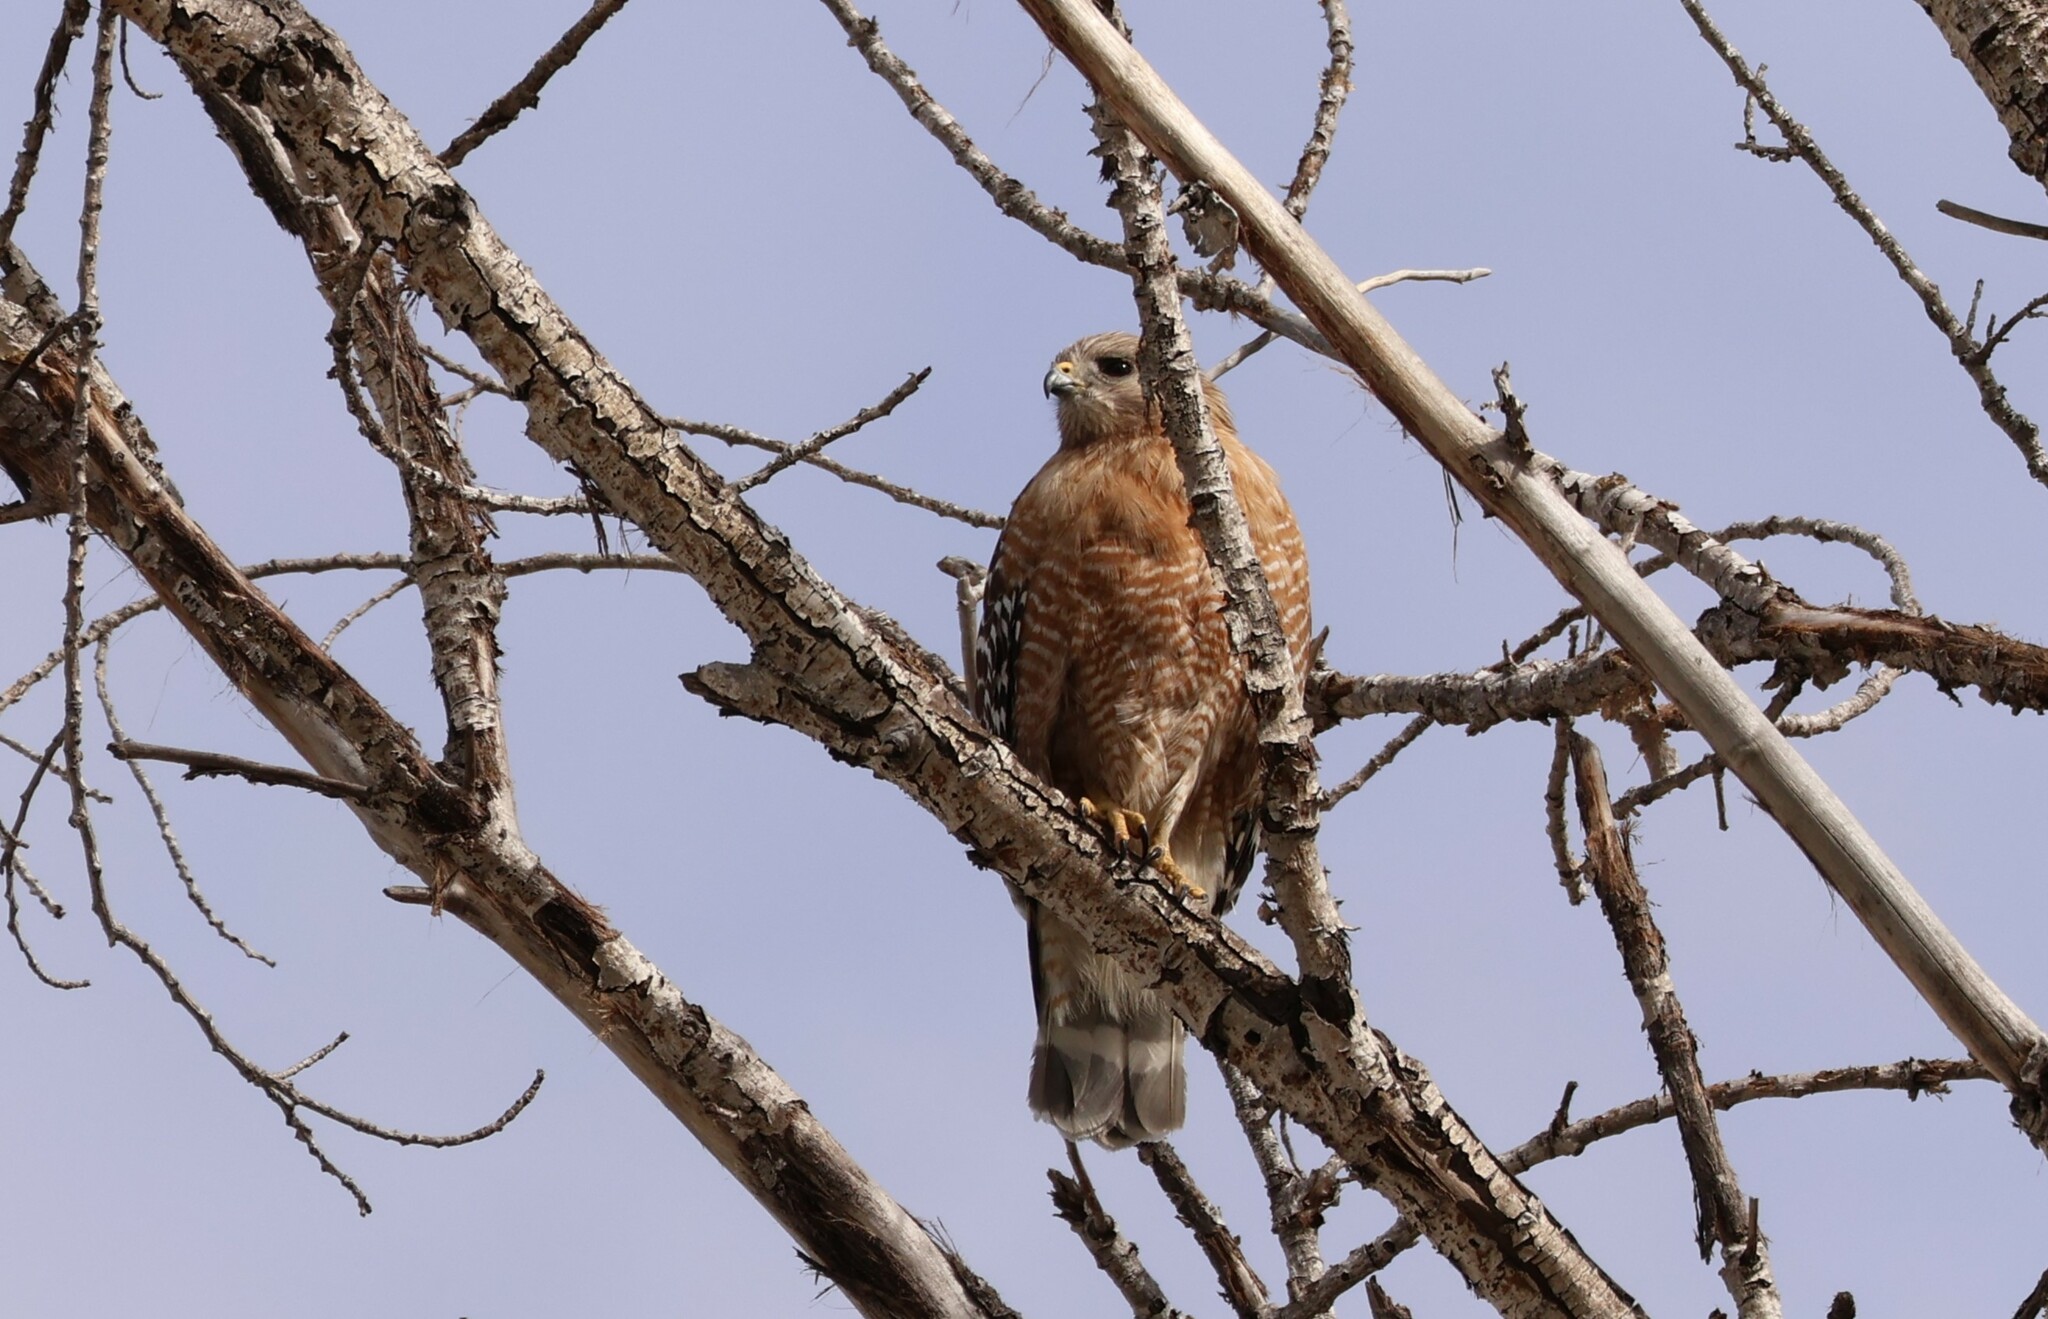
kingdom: Animalia
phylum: Chordata
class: Aves
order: Accipitriformes
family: Accipitridae
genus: Buteo
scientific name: Buteo lineatus
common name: Red-shouldered hawk
